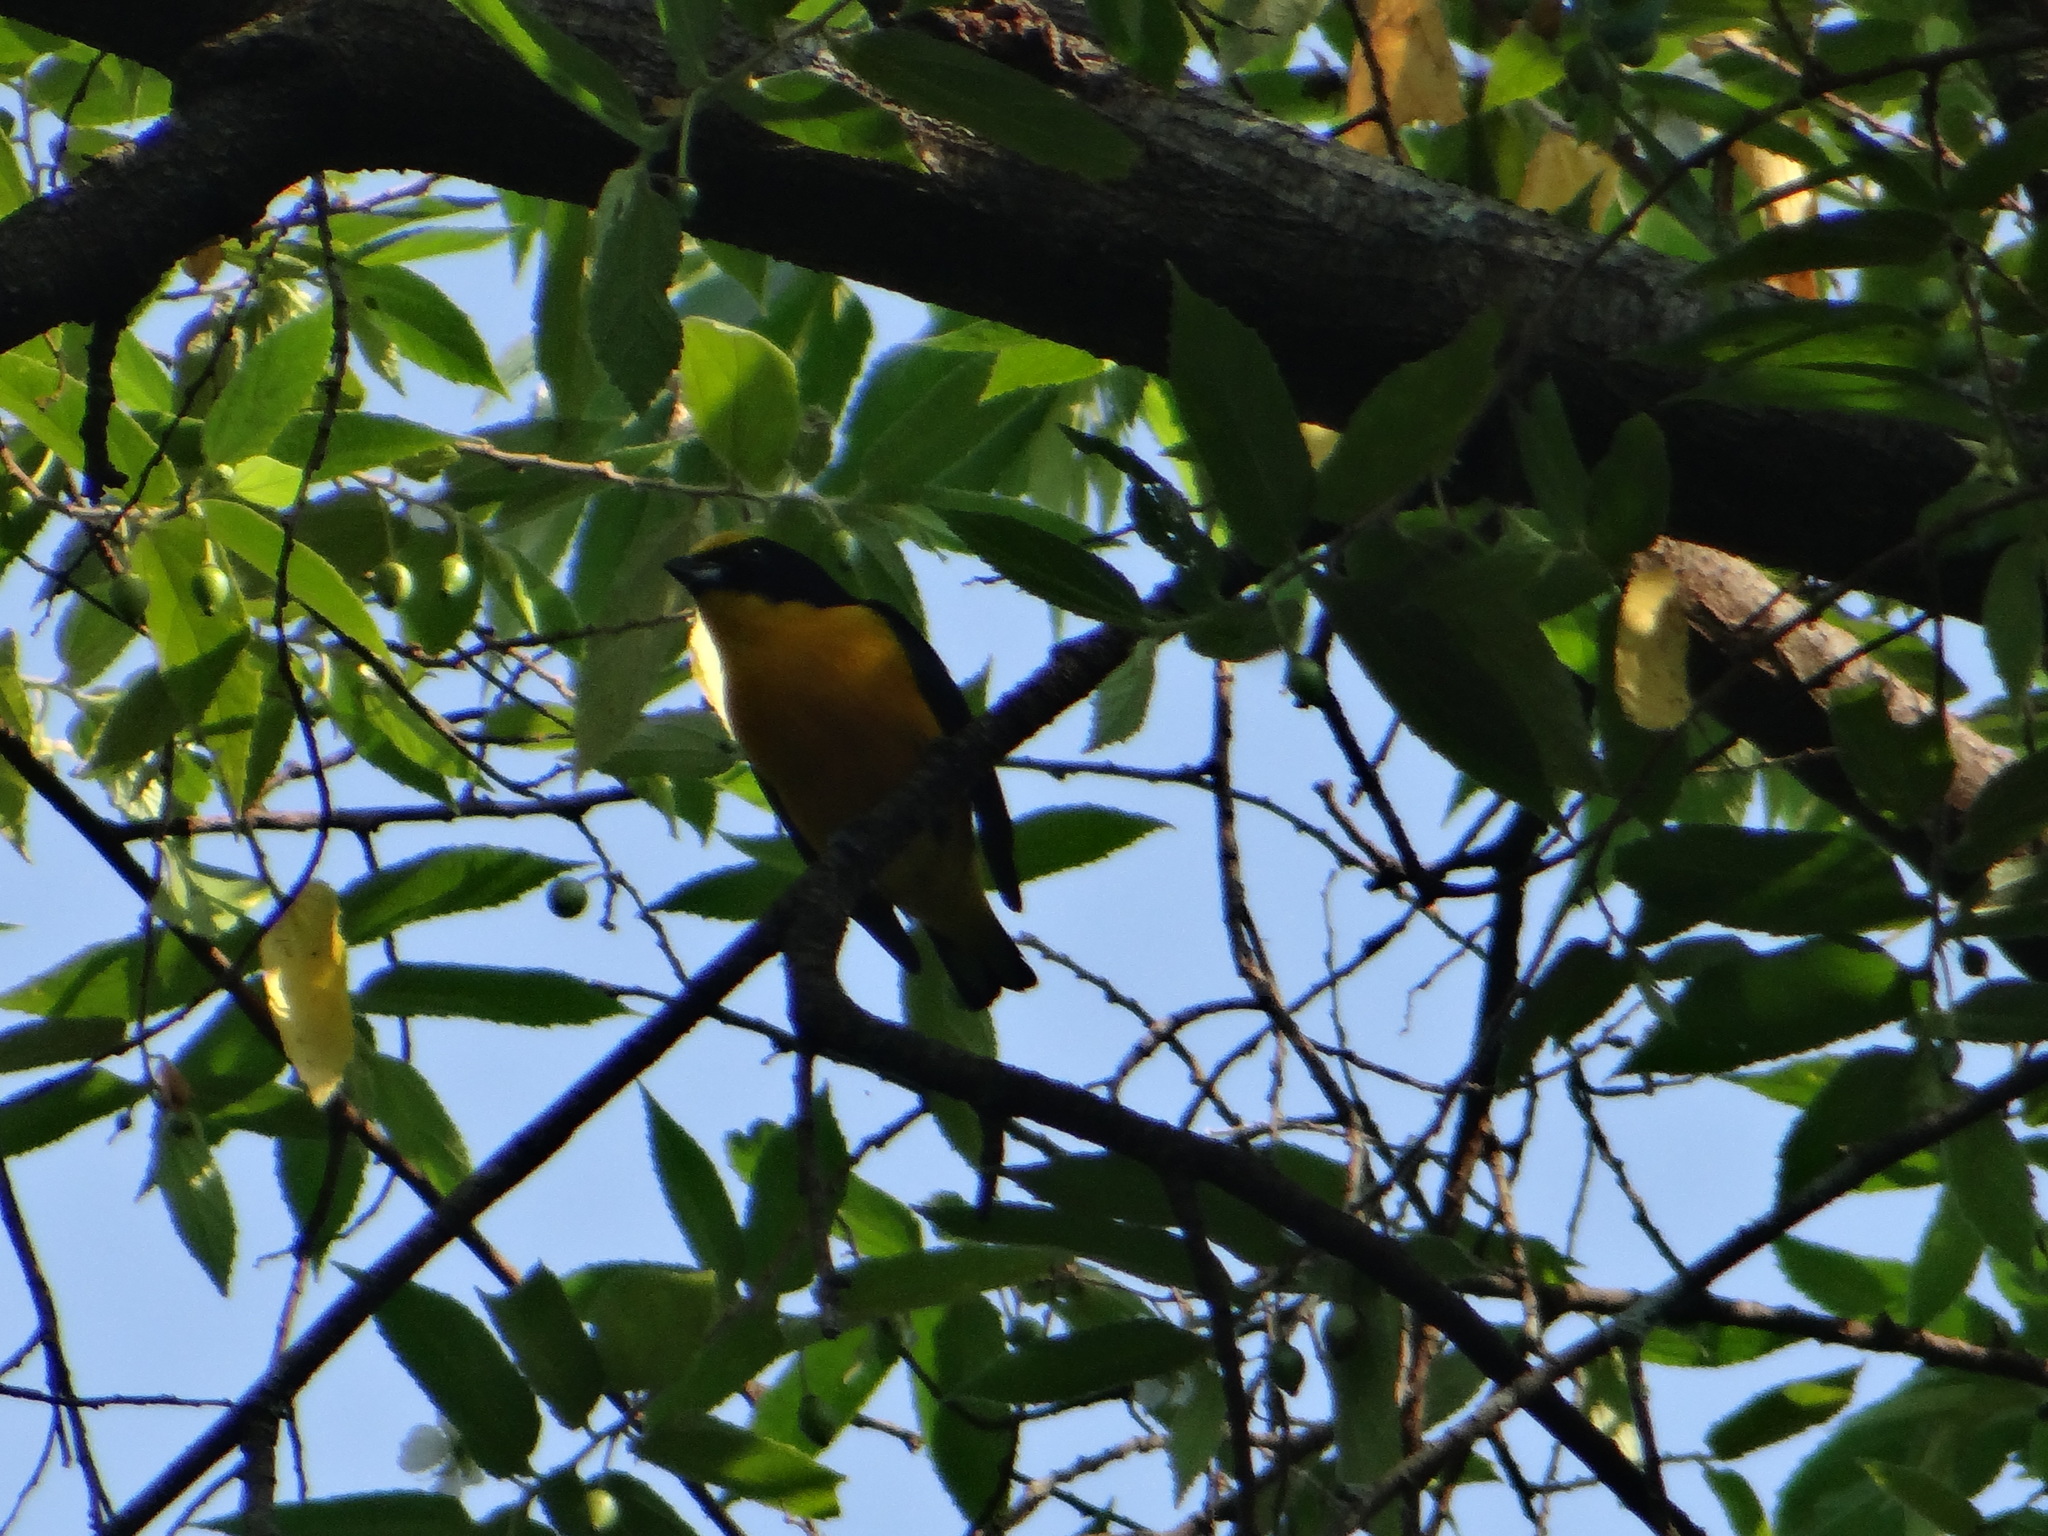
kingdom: Animalia
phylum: Chordata
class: Aves
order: Passeriformes
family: Fringillidae
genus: Euphonia
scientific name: Euphonia laniirostris
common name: Thick-billed euphonia
